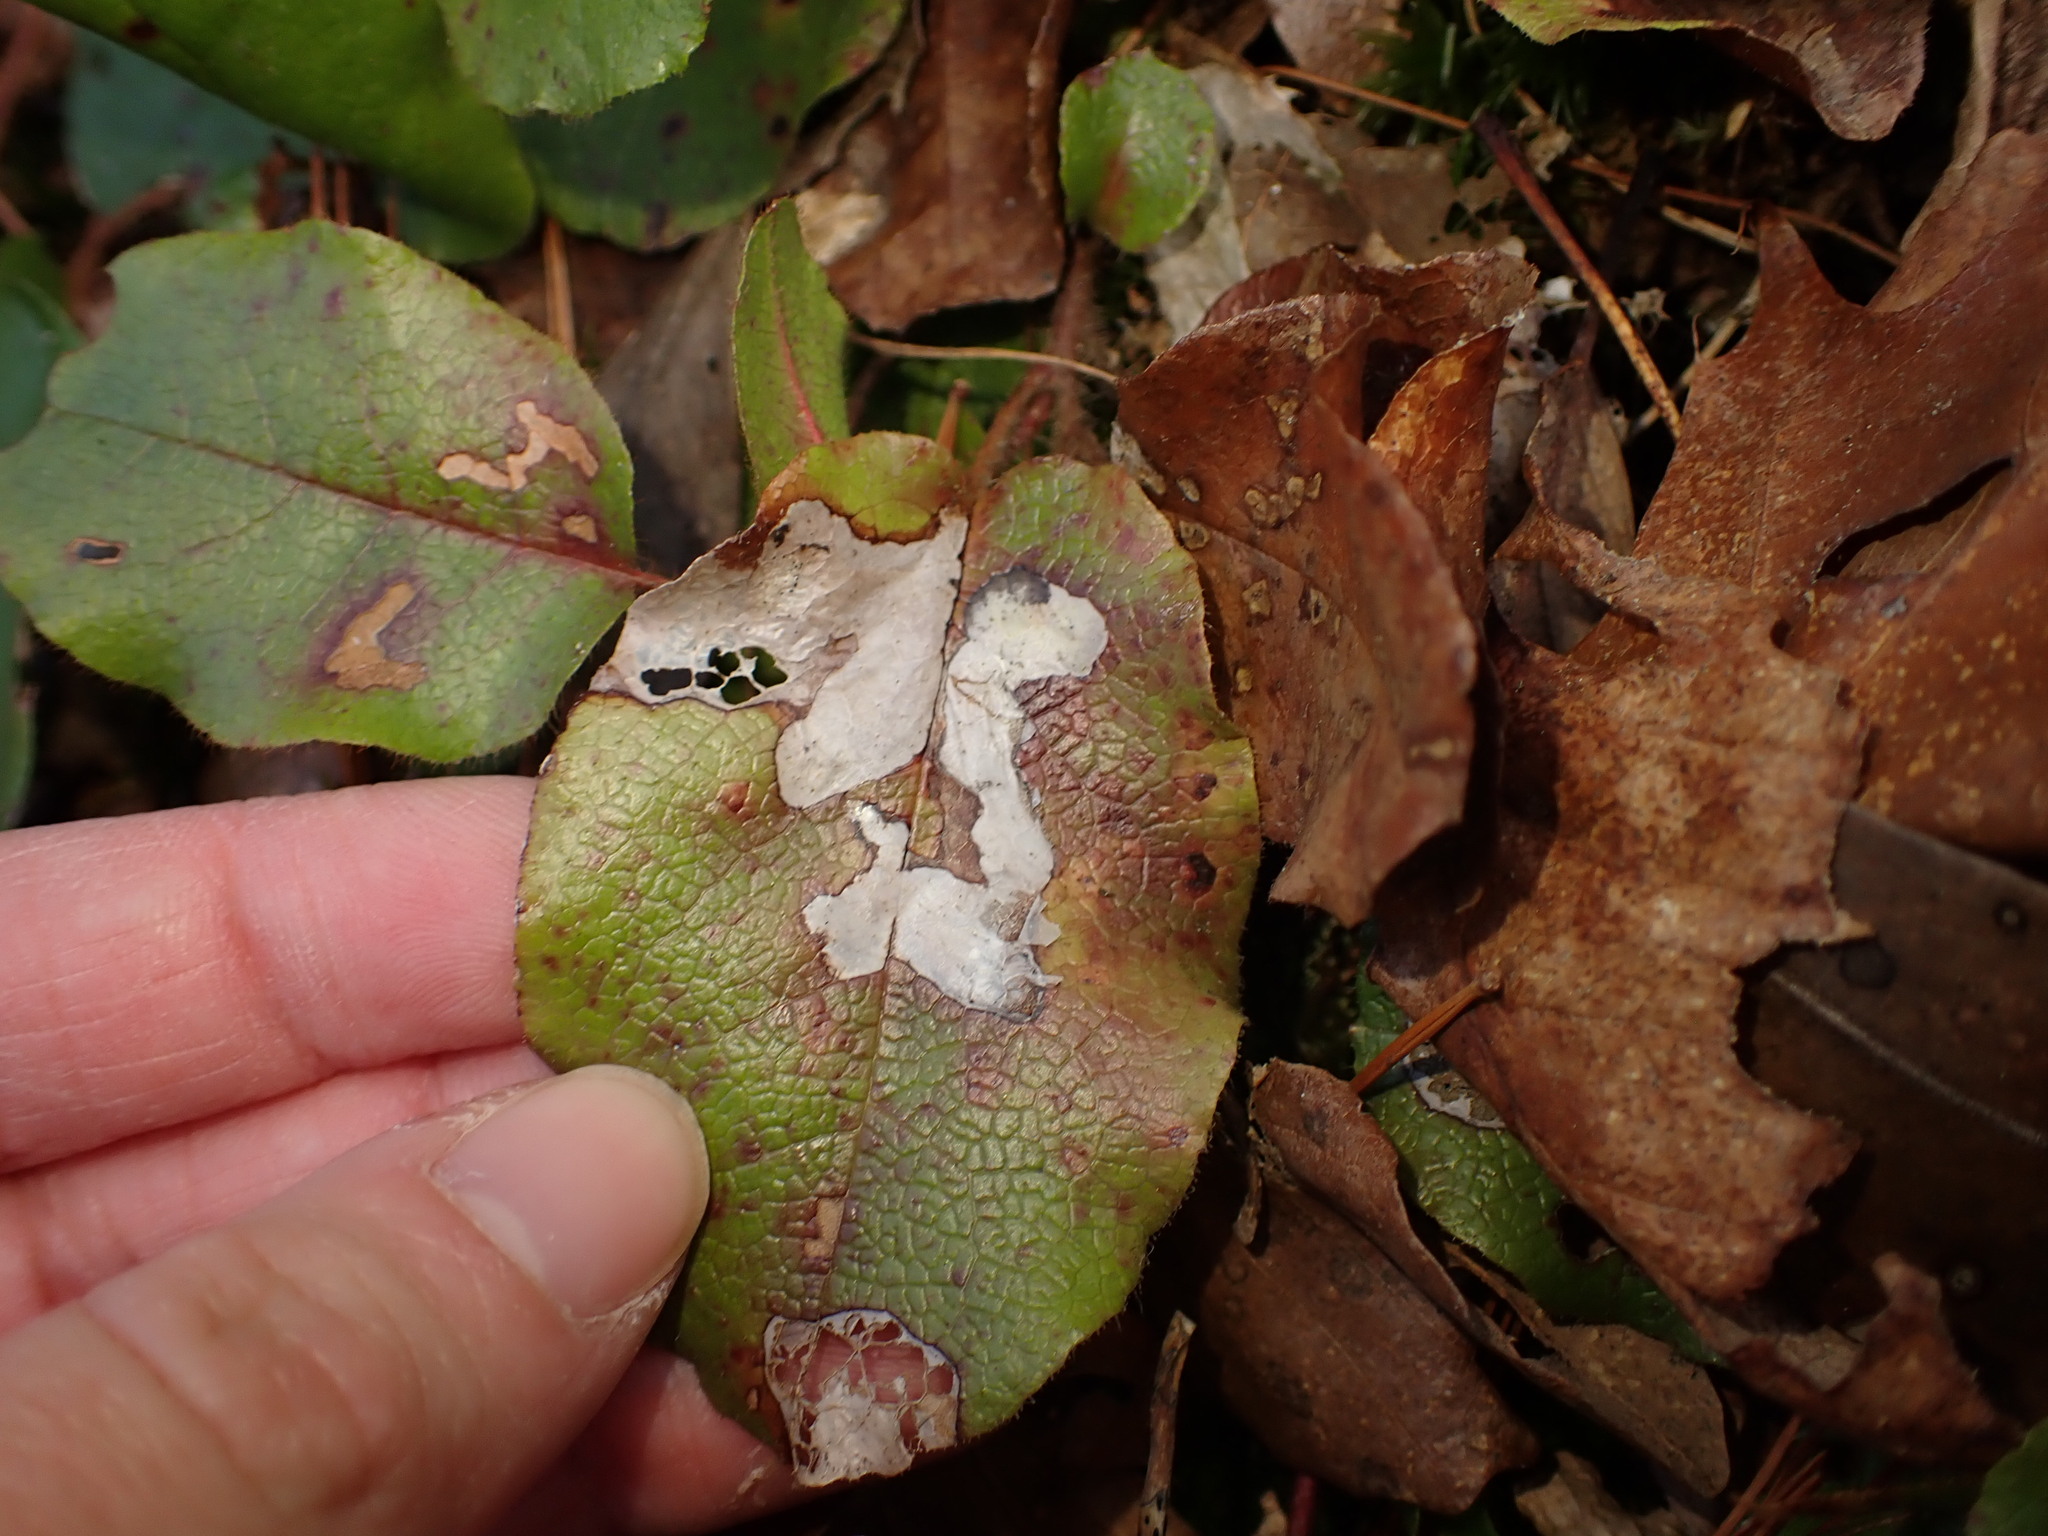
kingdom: Animalia
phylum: Arthropoda
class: Insecta
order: Coleoptera
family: Buprestidae
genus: Brachys
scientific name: Brachys
